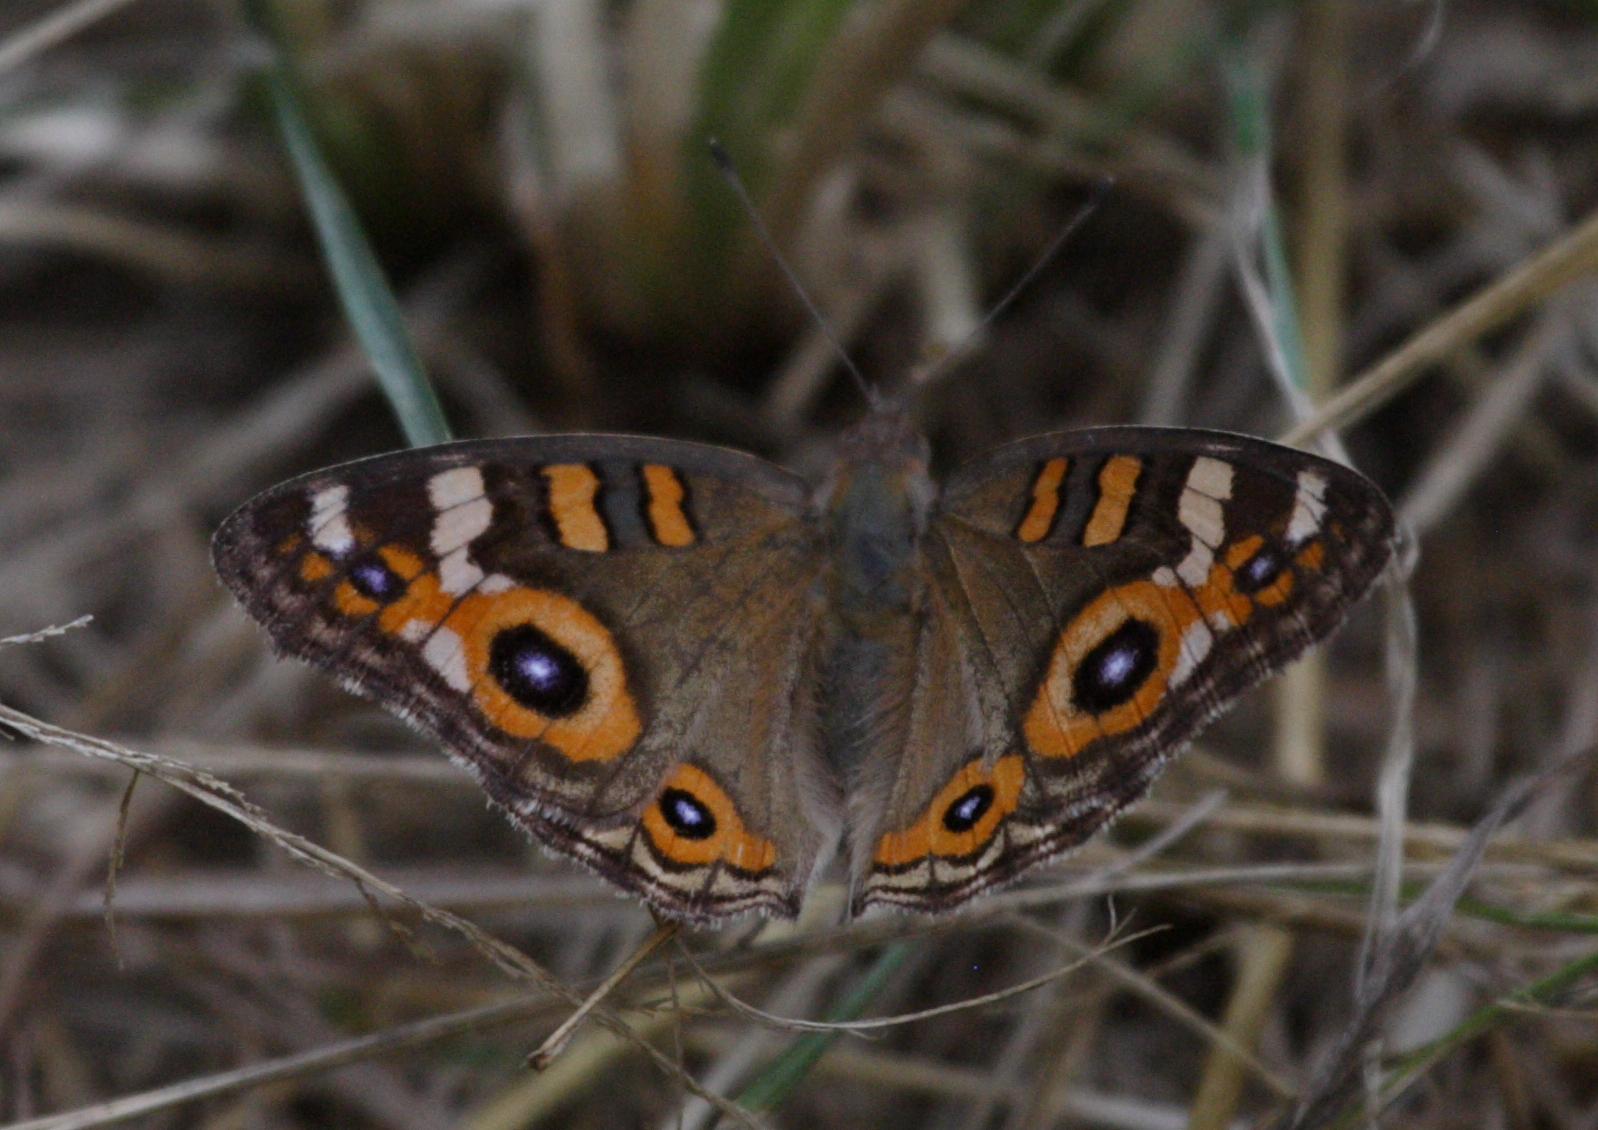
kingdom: Animalia
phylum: Arthropoda
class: Insecta
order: Lepidoptera
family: Nymphalidae
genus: Junonia
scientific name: Junonia villida
